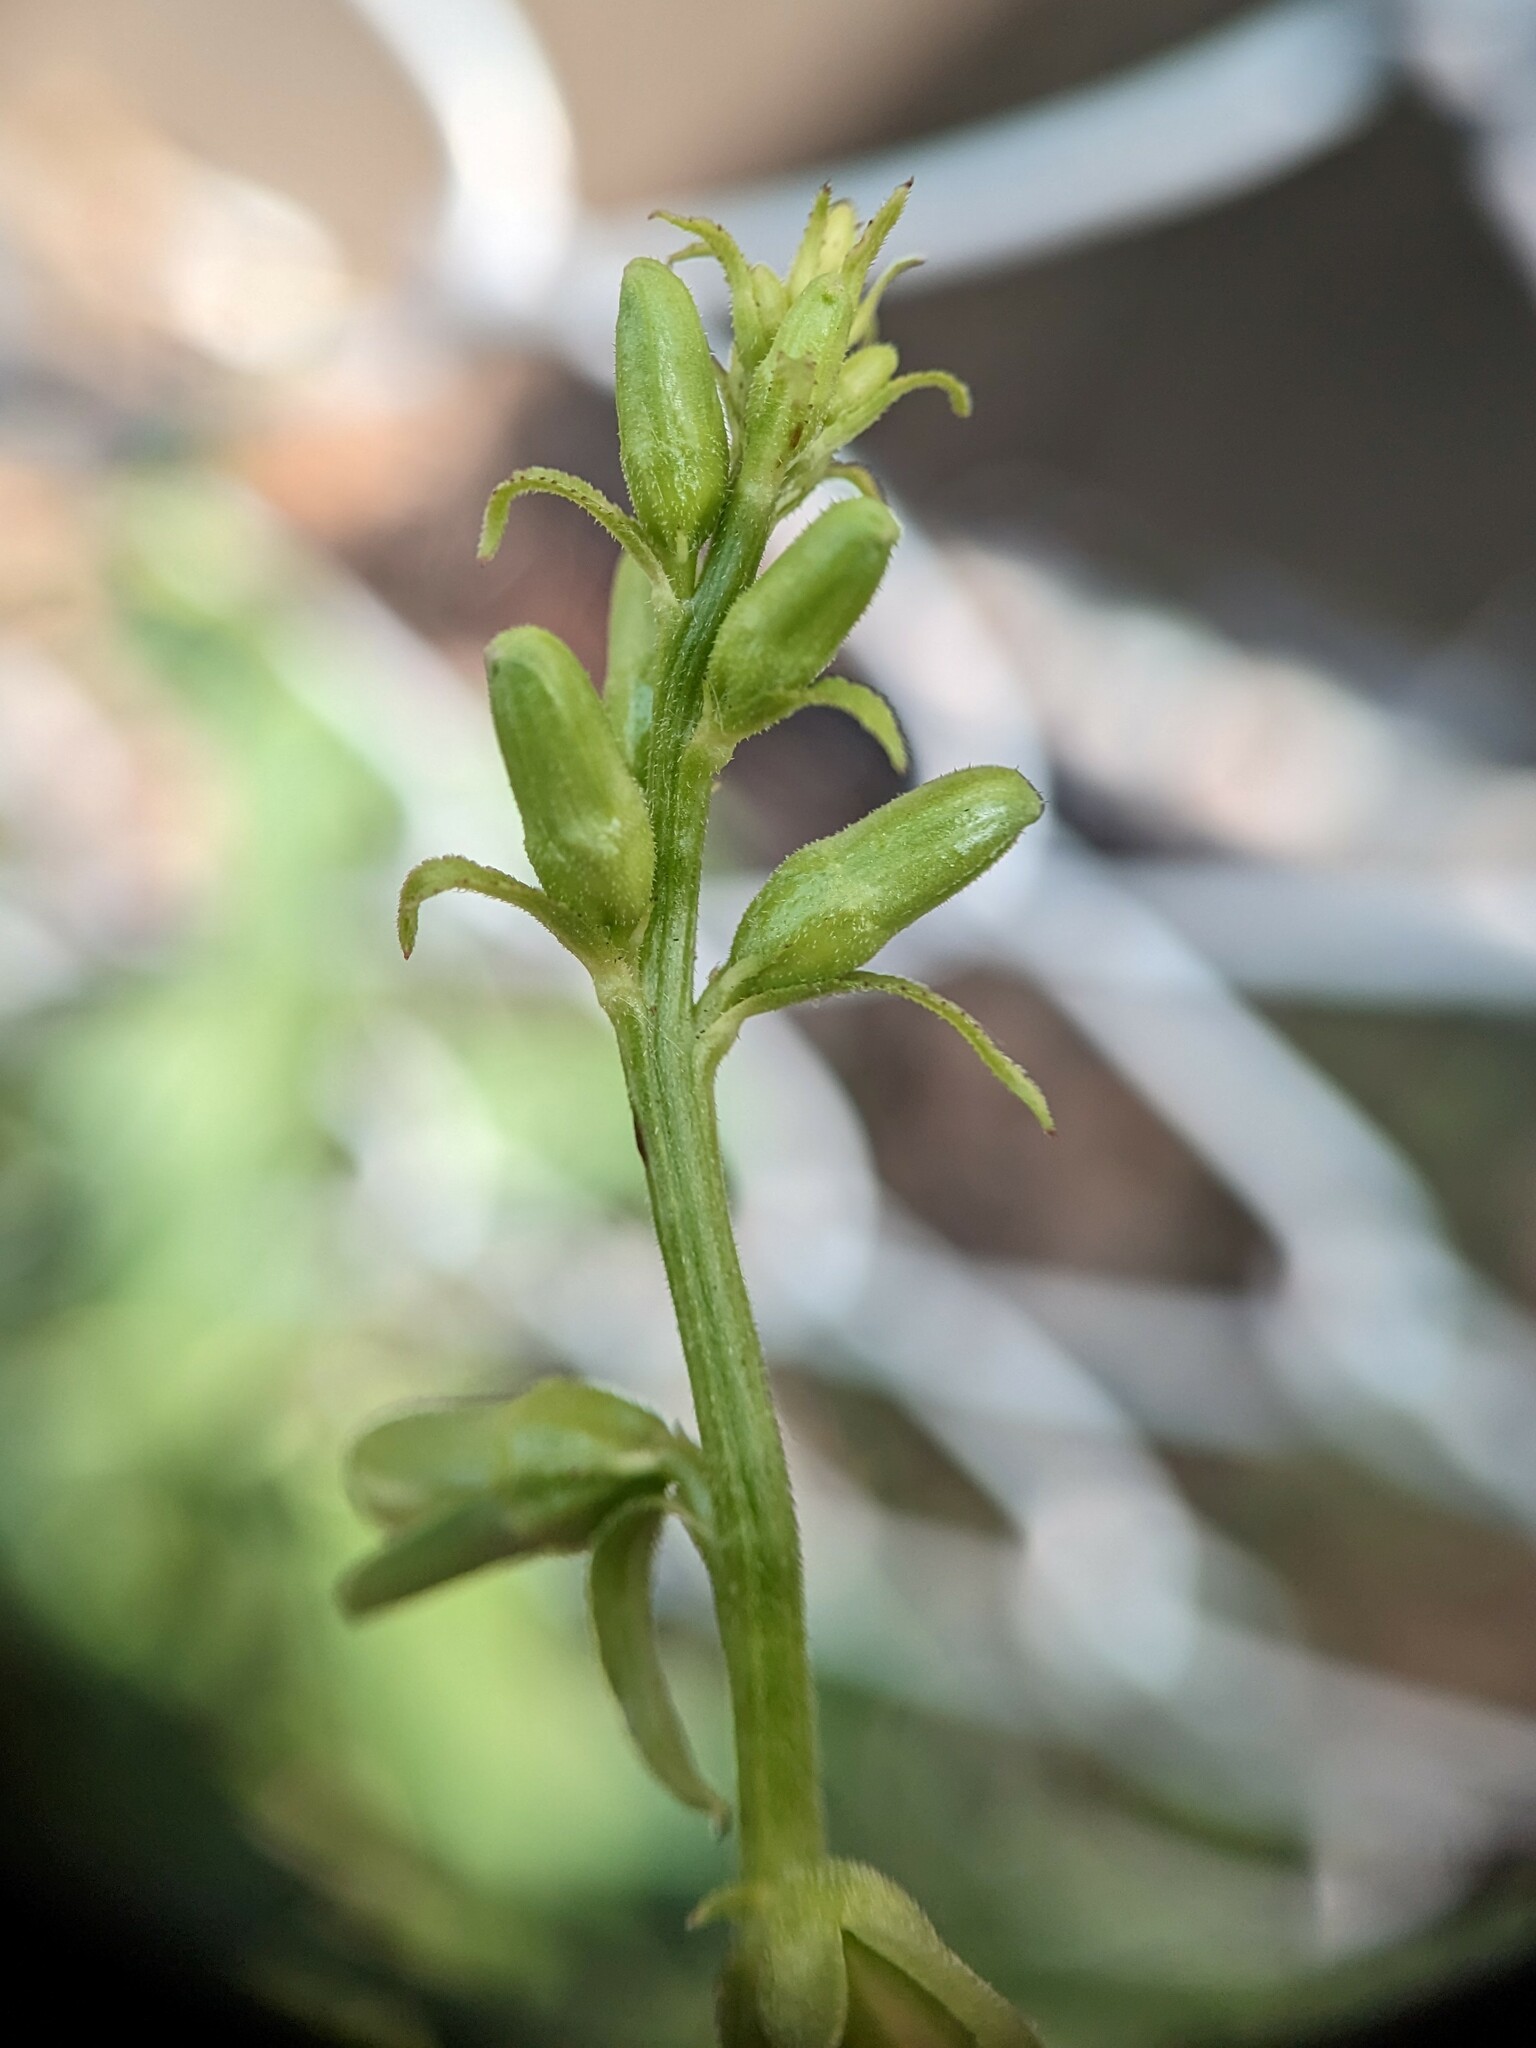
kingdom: Plantae
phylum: Tracheophyta
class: Magnoliopsida
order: Asterales
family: Campanulaceae
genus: Campanula
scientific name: Campanula rapunculoides
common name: Creeping bellflower
